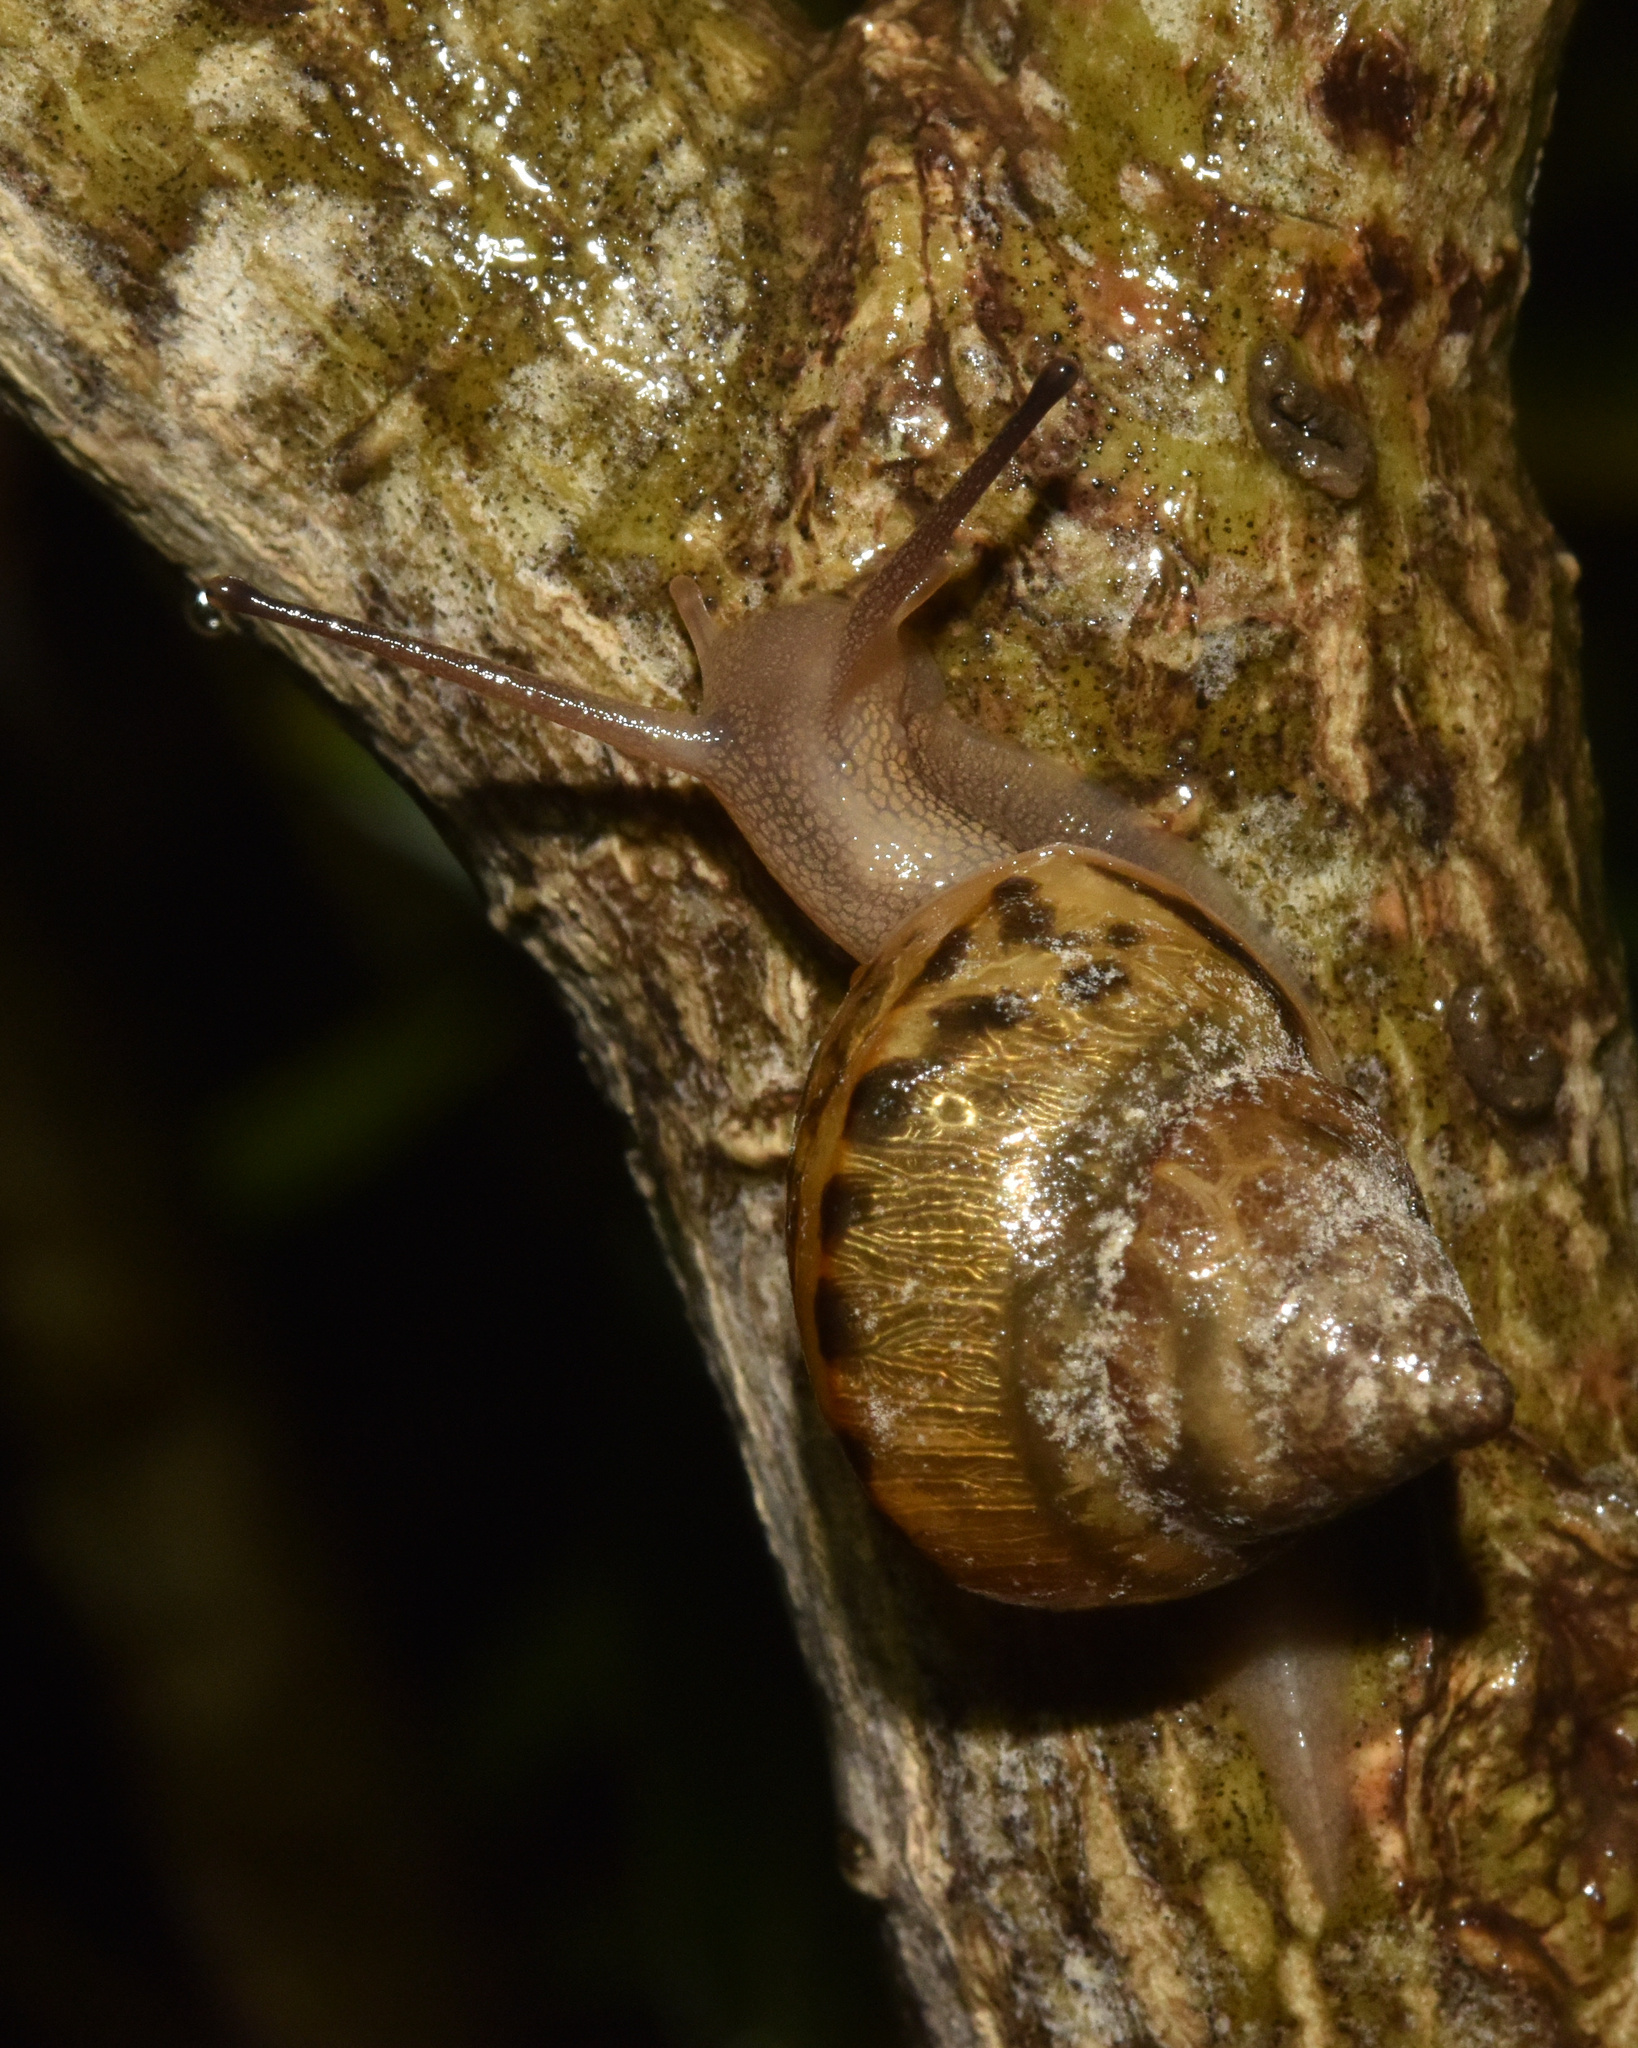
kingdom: Animalia
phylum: Mollusca
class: Gastropoda
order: Stylommatophora
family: Cerastidae
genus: Gittenedouardia
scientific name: Gittenedouardia natalensis
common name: Common bark snail
